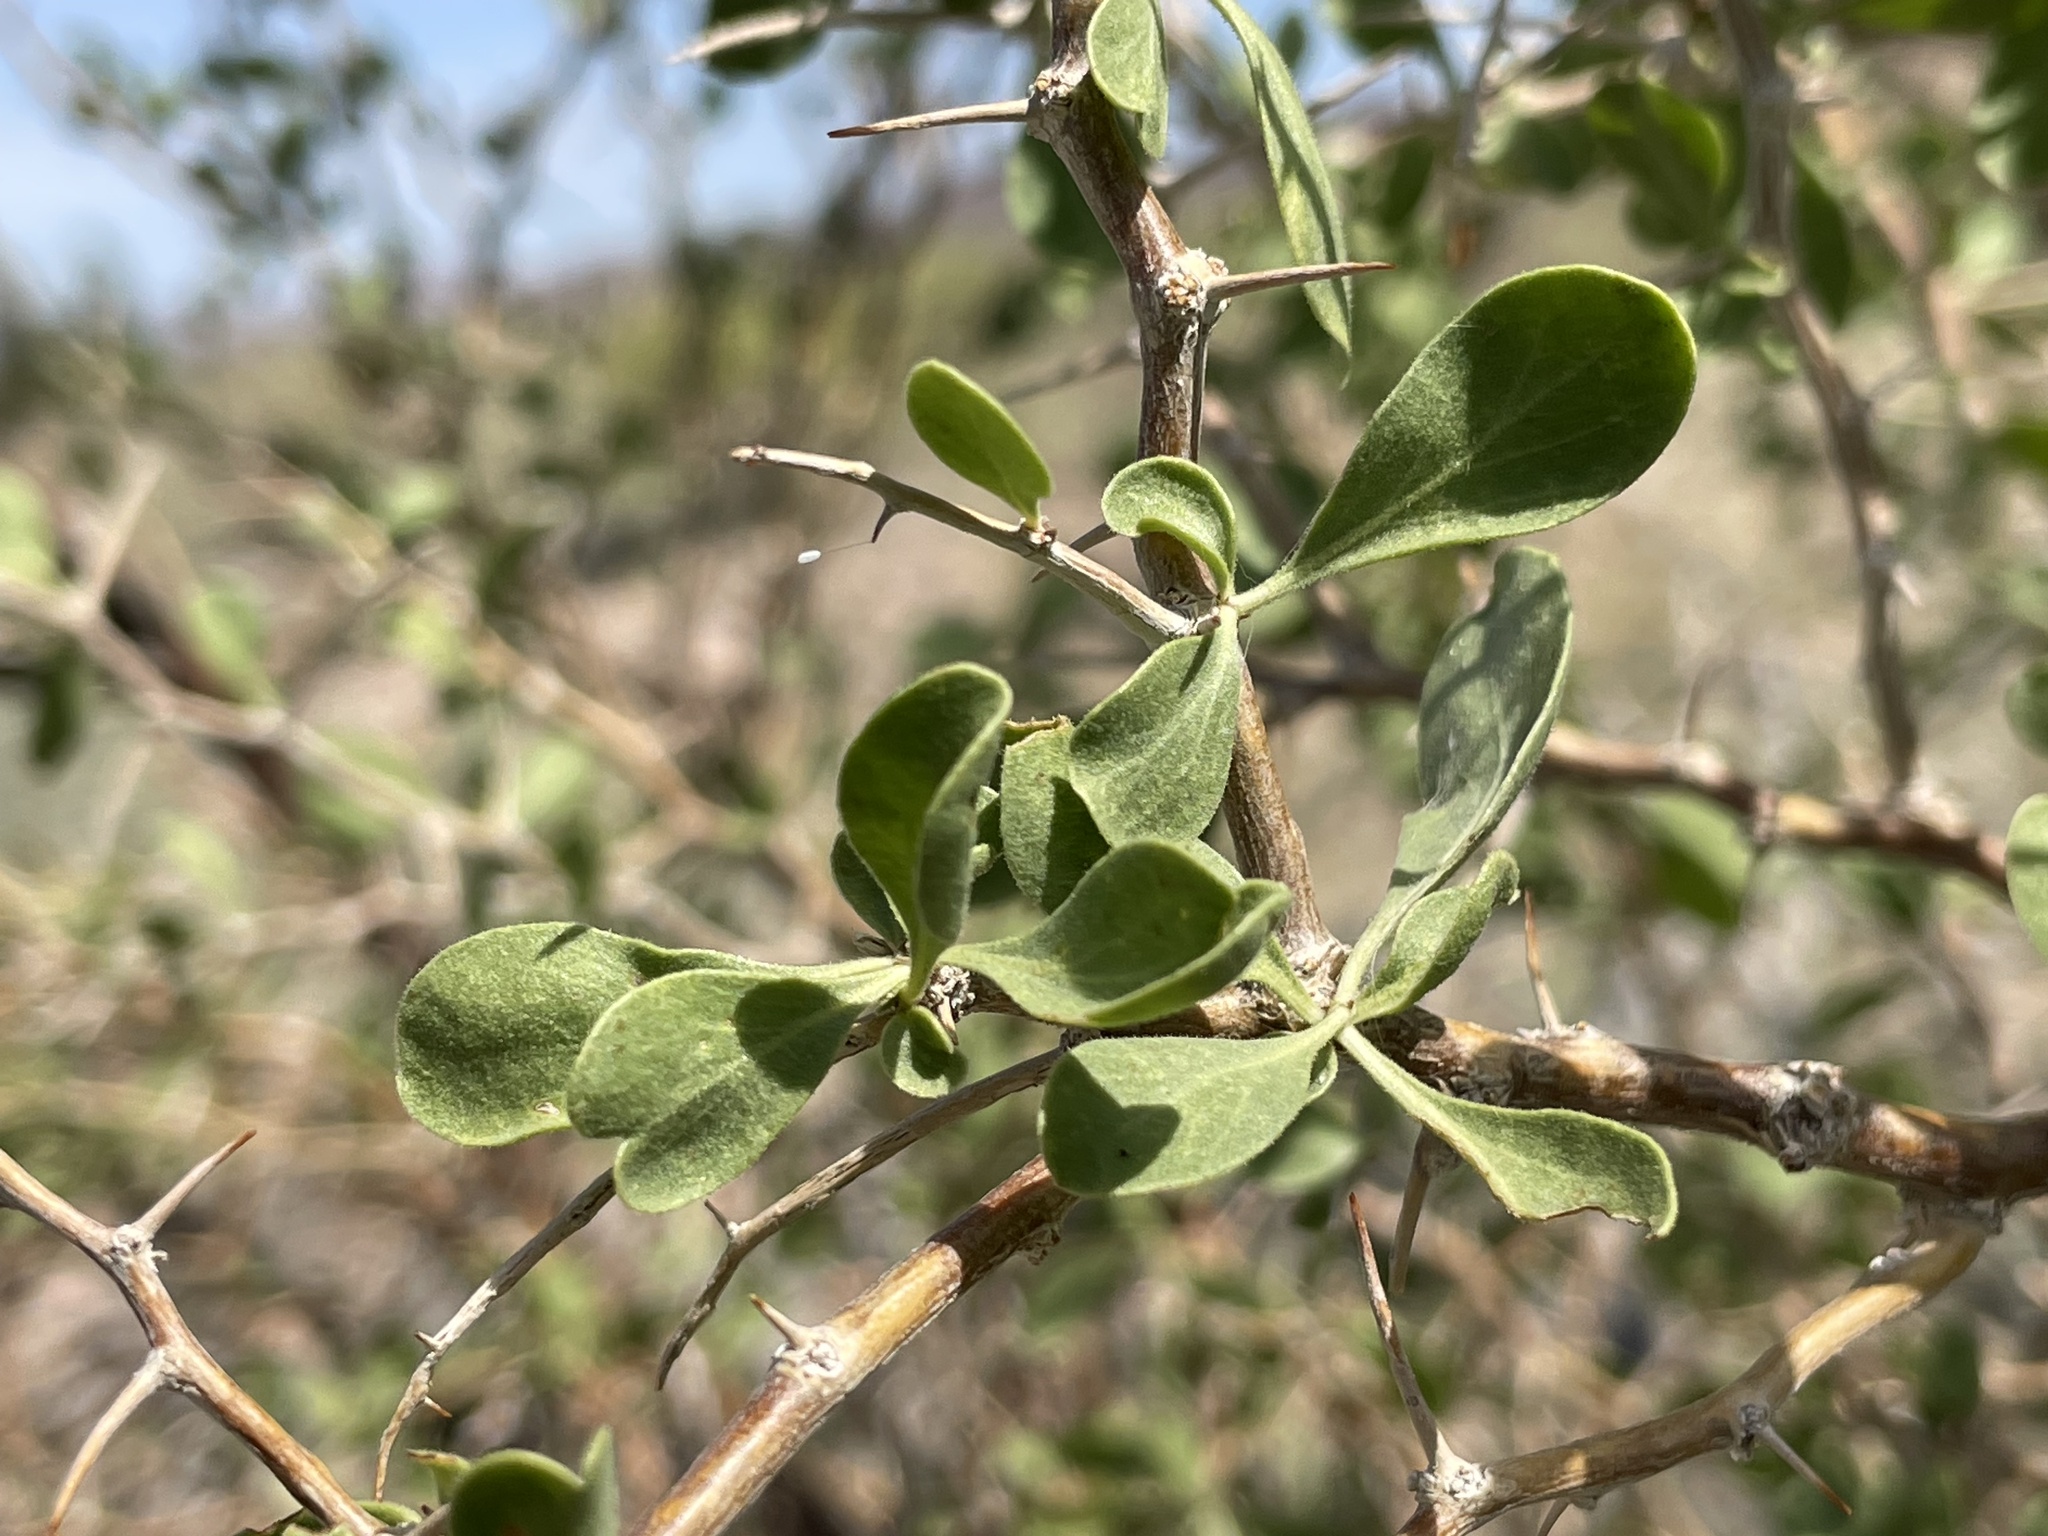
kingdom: Plantae
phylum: Tracheophyta
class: Magnoliopsida
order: Solanales
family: Solanaceae
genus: Lycium
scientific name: Lycium cooperi
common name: Peachthorn
